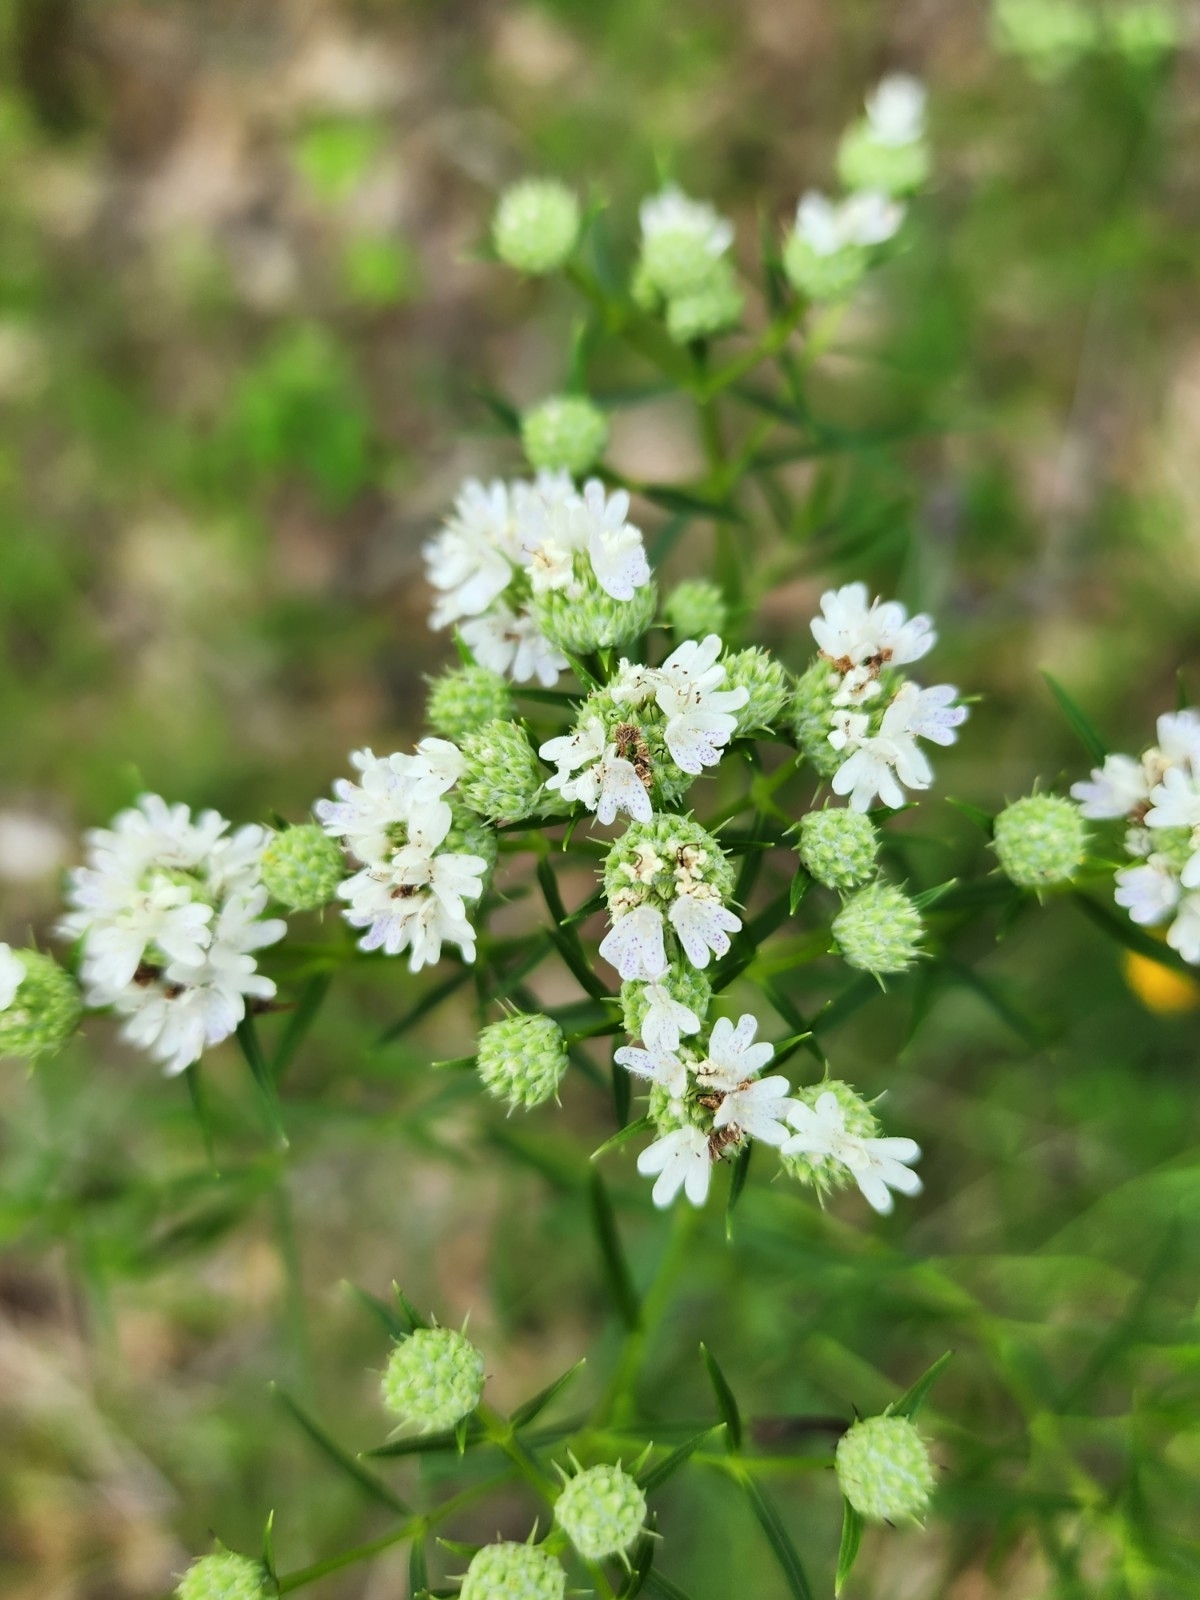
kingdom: Plantae
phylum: Tracheophyta
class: Magnoliopsida
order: Lamiales
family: Lamiaceae
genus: Pycnanthemum
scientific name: Pycnanthemum tenuifolium
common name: Narrow-leaf mountain-mint
